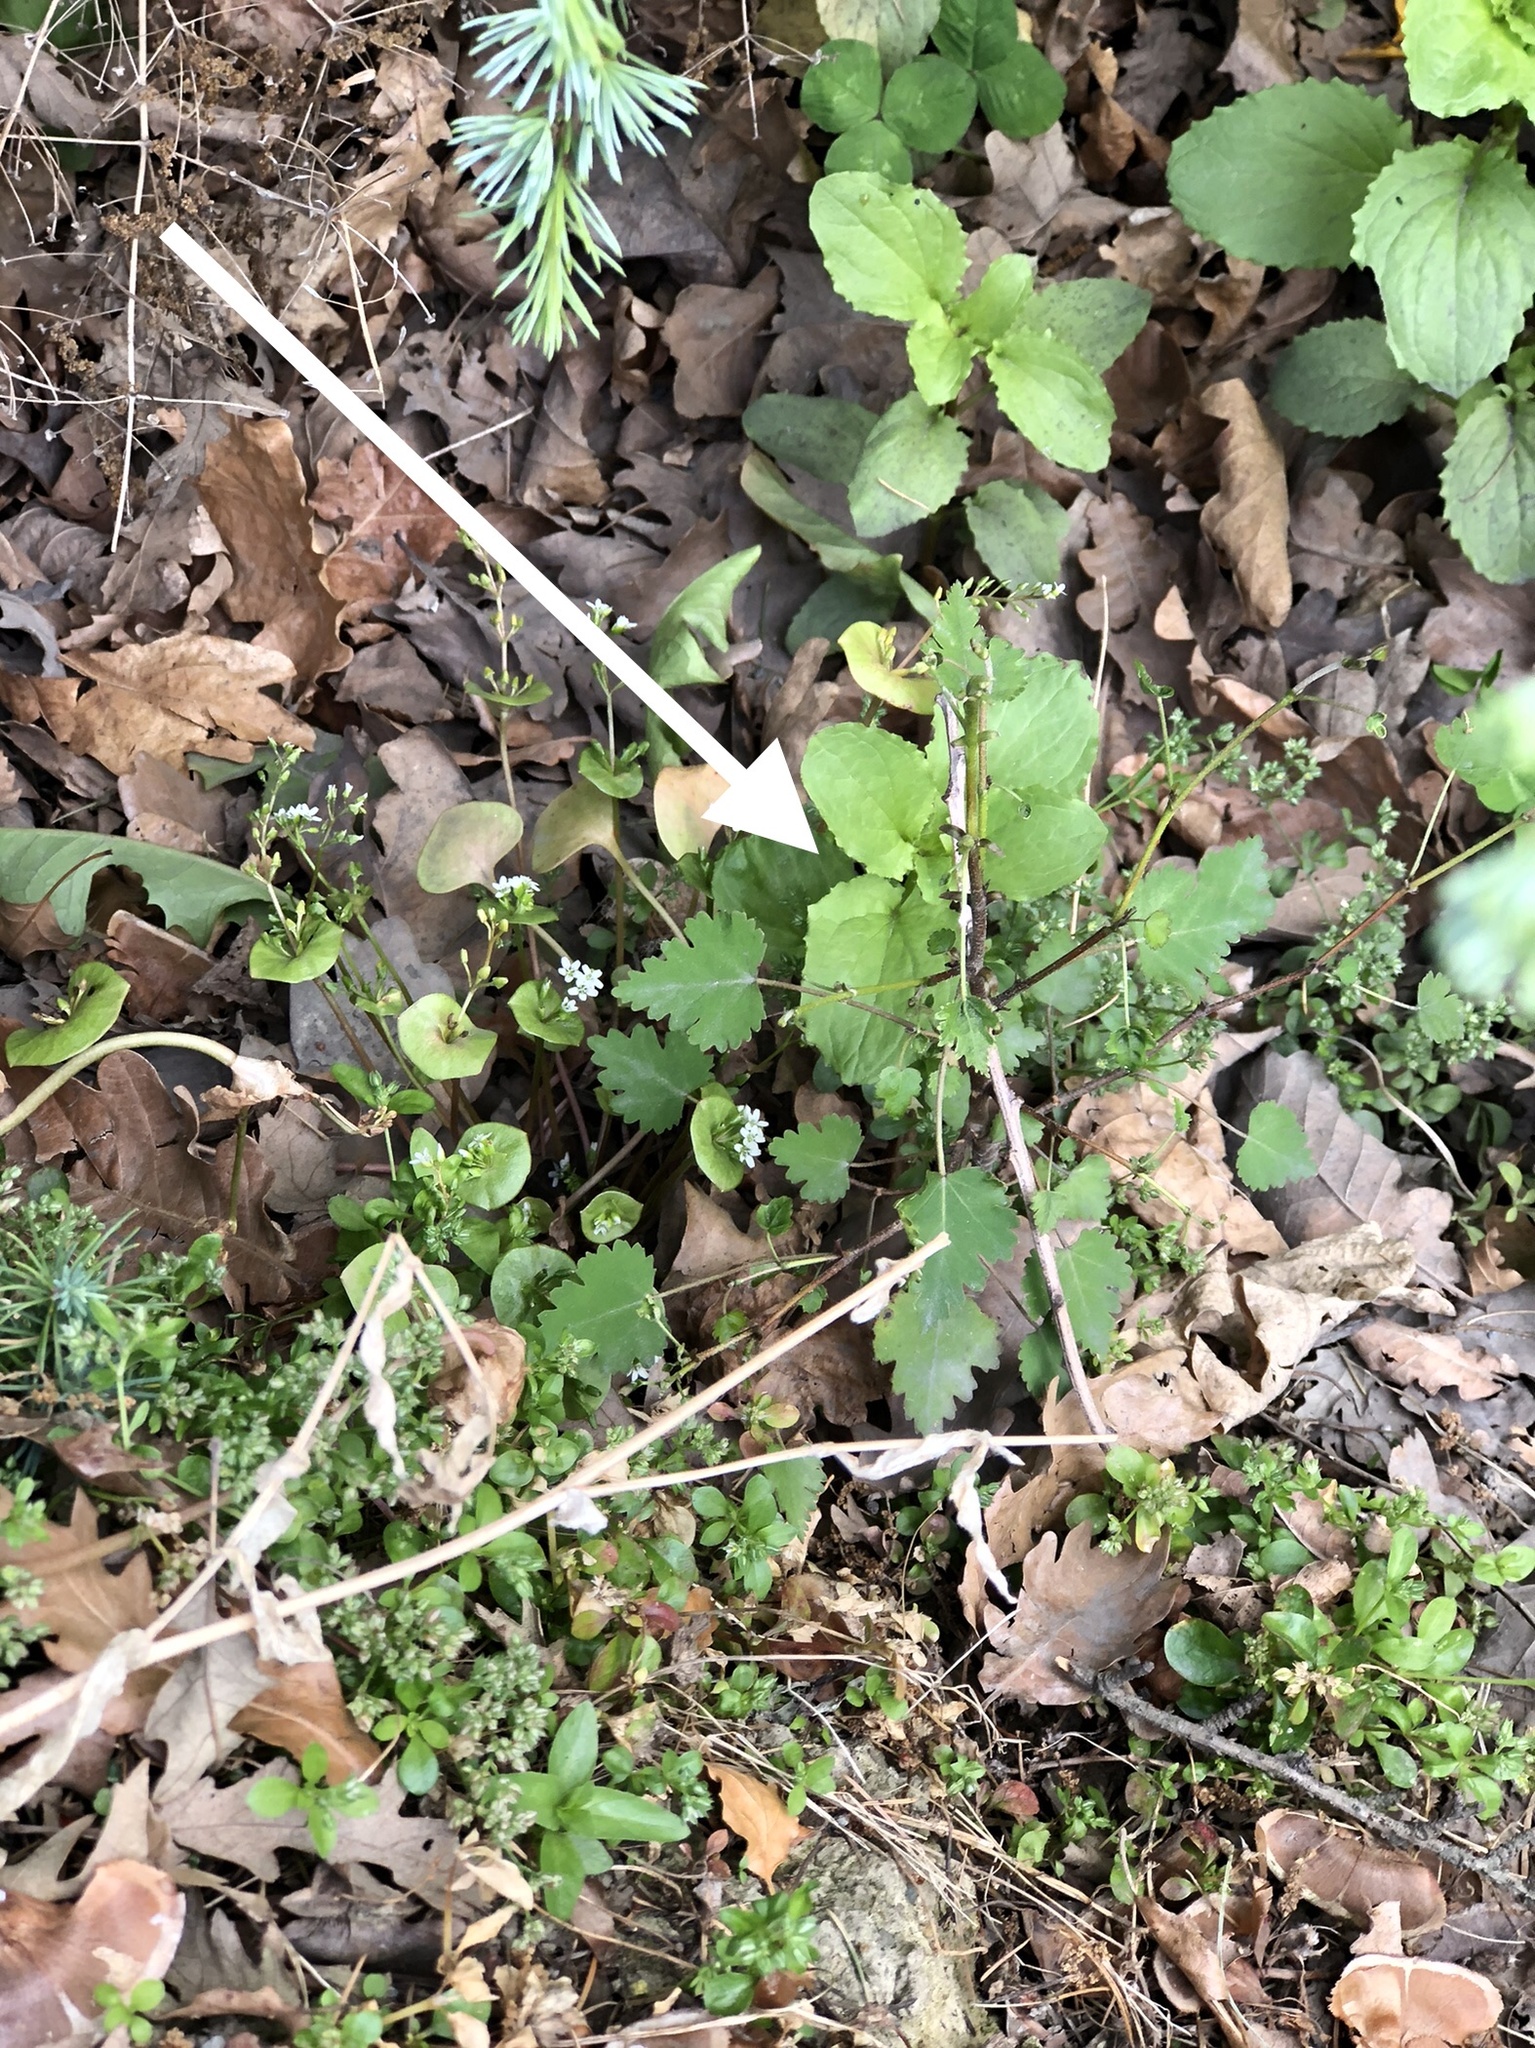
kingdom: Plantae
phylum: Tracheophyta
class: Magnoliopsida
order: Malvales
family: Malvaceae
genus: Plagianthus
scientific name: Plagianthus regius
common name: Manatu
